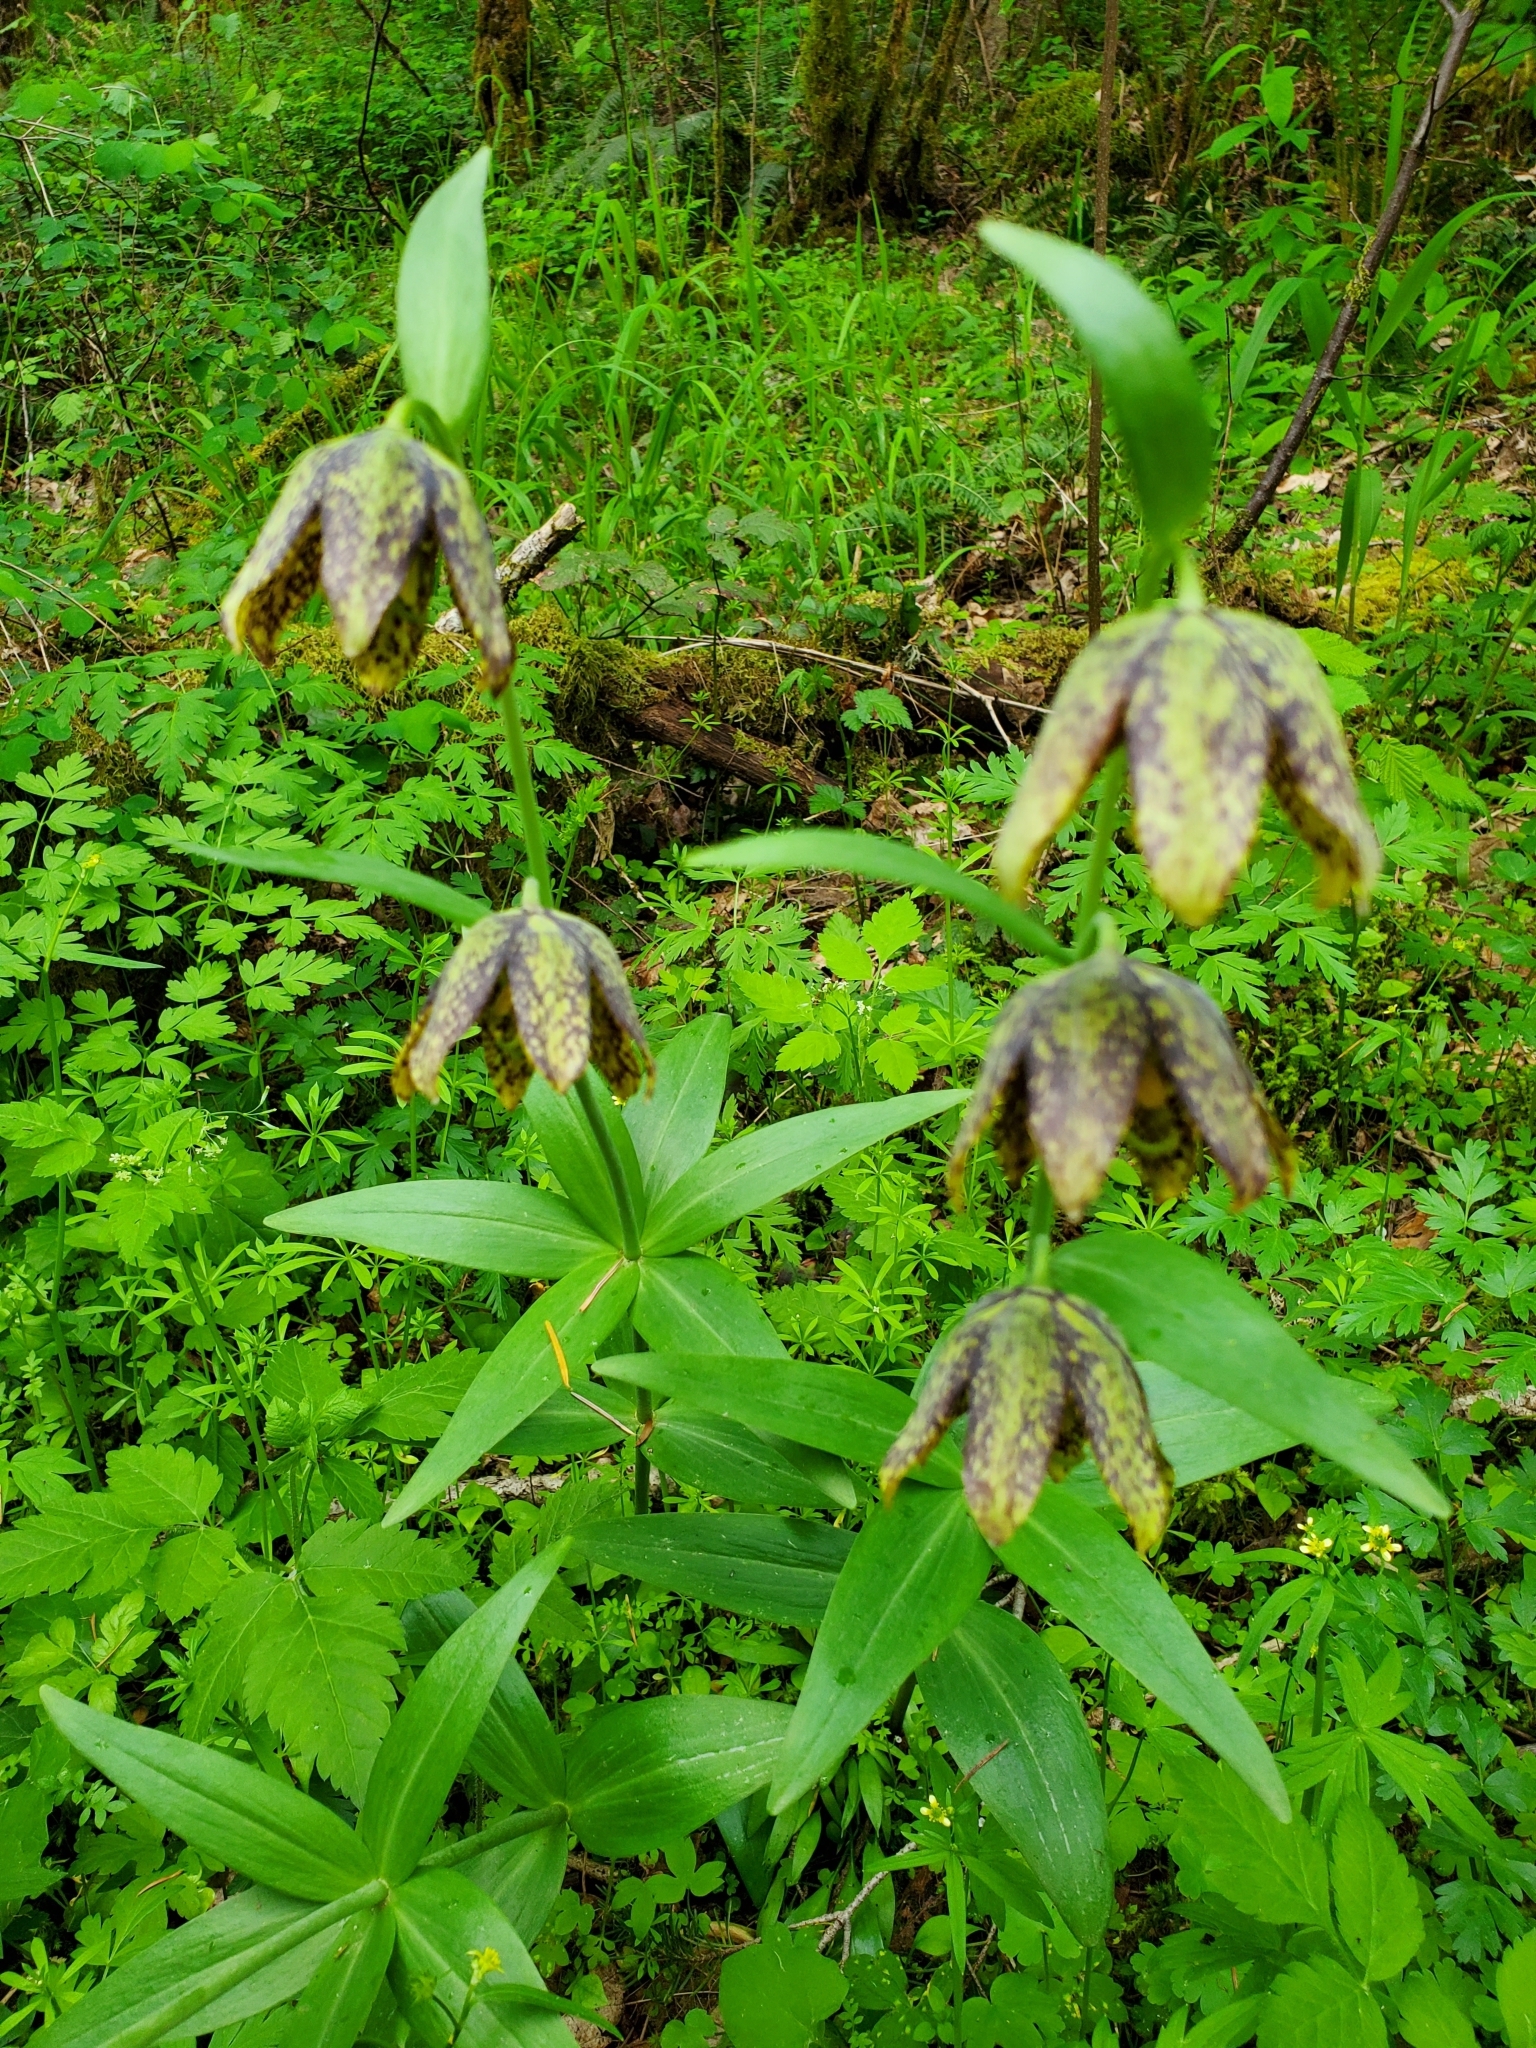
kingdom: Plantae
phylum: Tracheophyta
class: Liliopsida
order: Liliales
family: Liliaceae
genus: Fritillaria
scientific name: Fritillaria affinis
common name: Ojai fritillary
